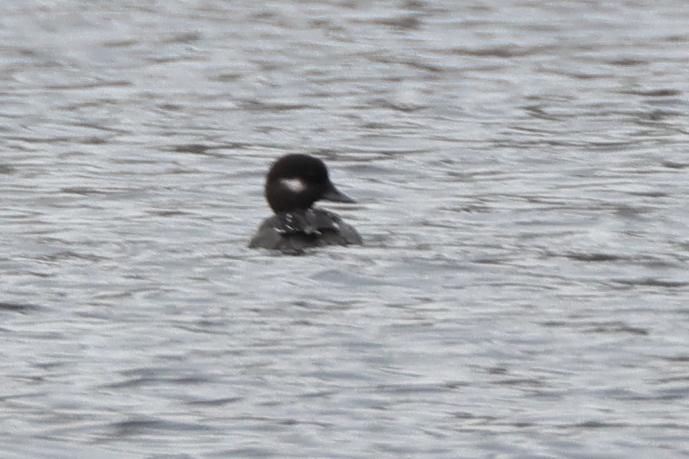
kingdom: Animalia
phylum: Chordata
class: Aves
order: Anseriformes
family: Anatidae
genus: Bucephala
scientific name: Bucephala albeola
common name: Bufflehead
